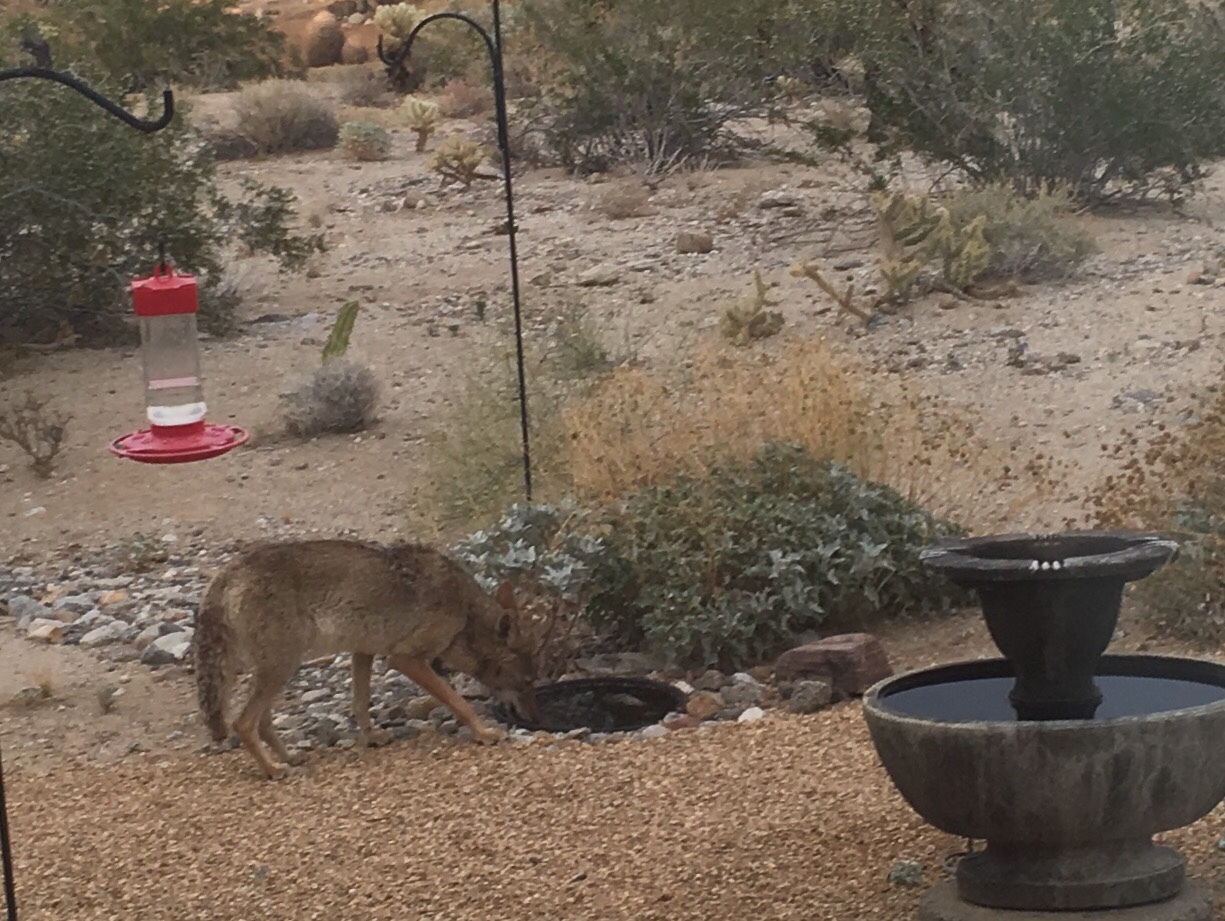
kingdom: Animalia
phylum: Chordata
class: Mammalia
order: Carnivora
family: Canidae
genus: Canis
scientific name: Canis latrans
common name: Coyote
